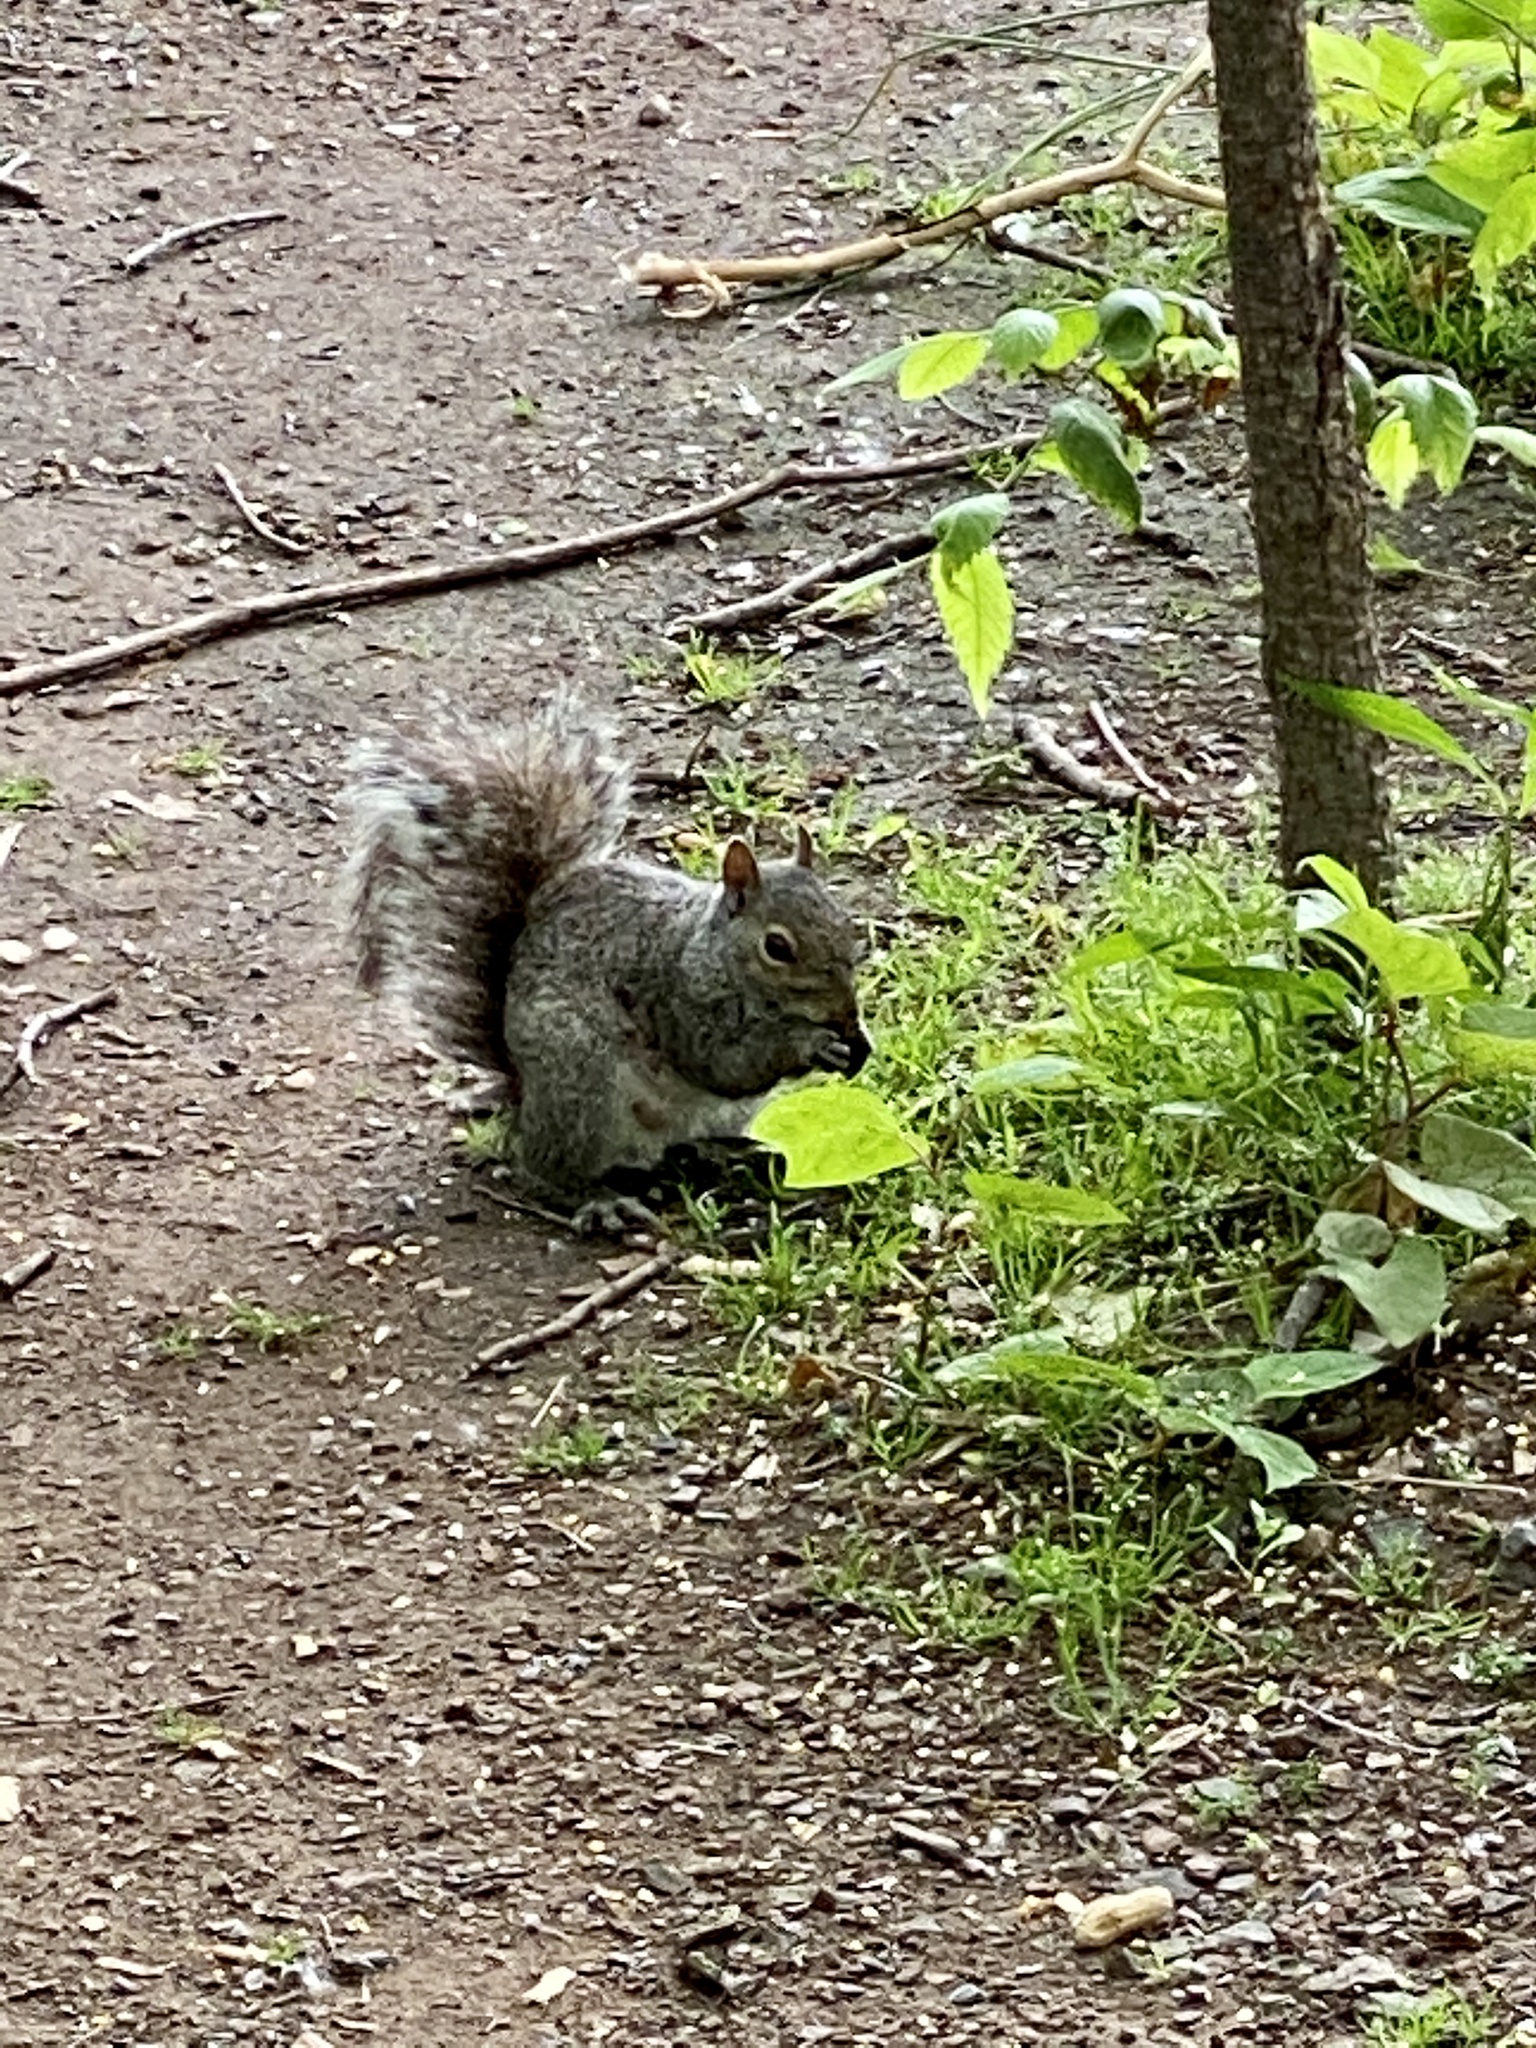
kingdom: Animalia
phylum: Chordata
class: Mammalia
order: Rodentia
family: Sciuridae
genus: Sciurus
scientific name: Sciurus carolinensis
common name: Eastern gray squirrel
